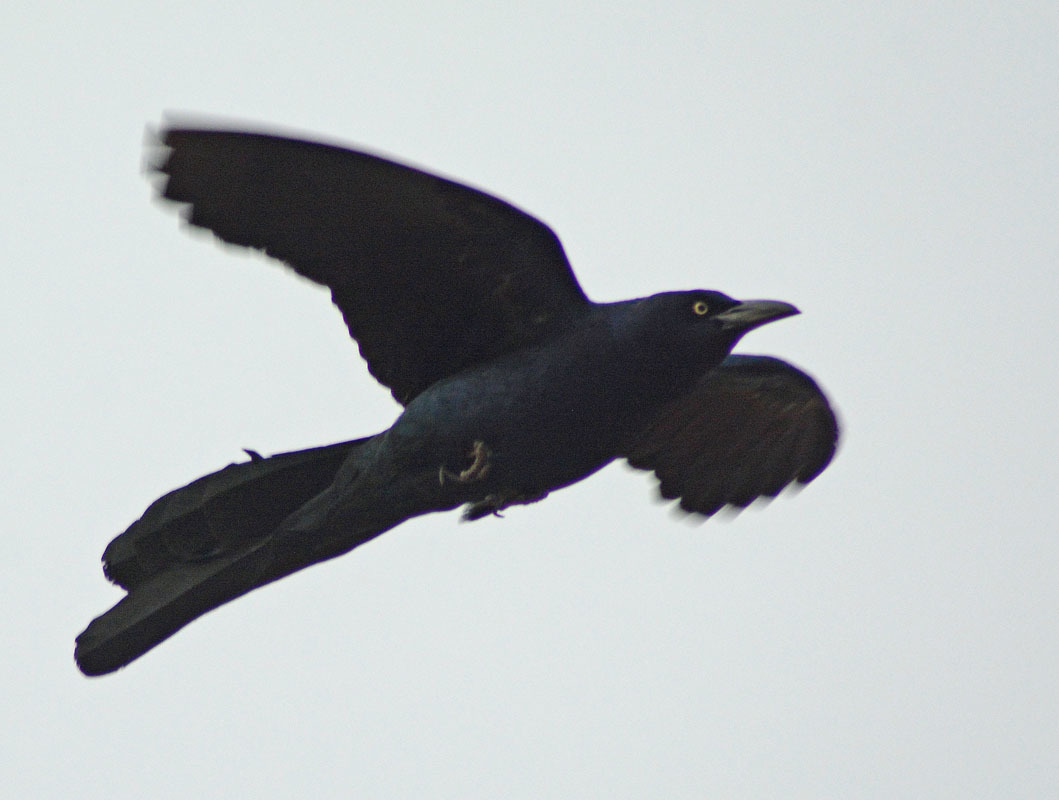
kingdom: Animalia
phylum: Chordata
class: Aves
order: Passeriformes
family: Icteridae
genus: Quiscalus
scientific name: Quiscalus mexicanus
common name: Great-tailed grackle
